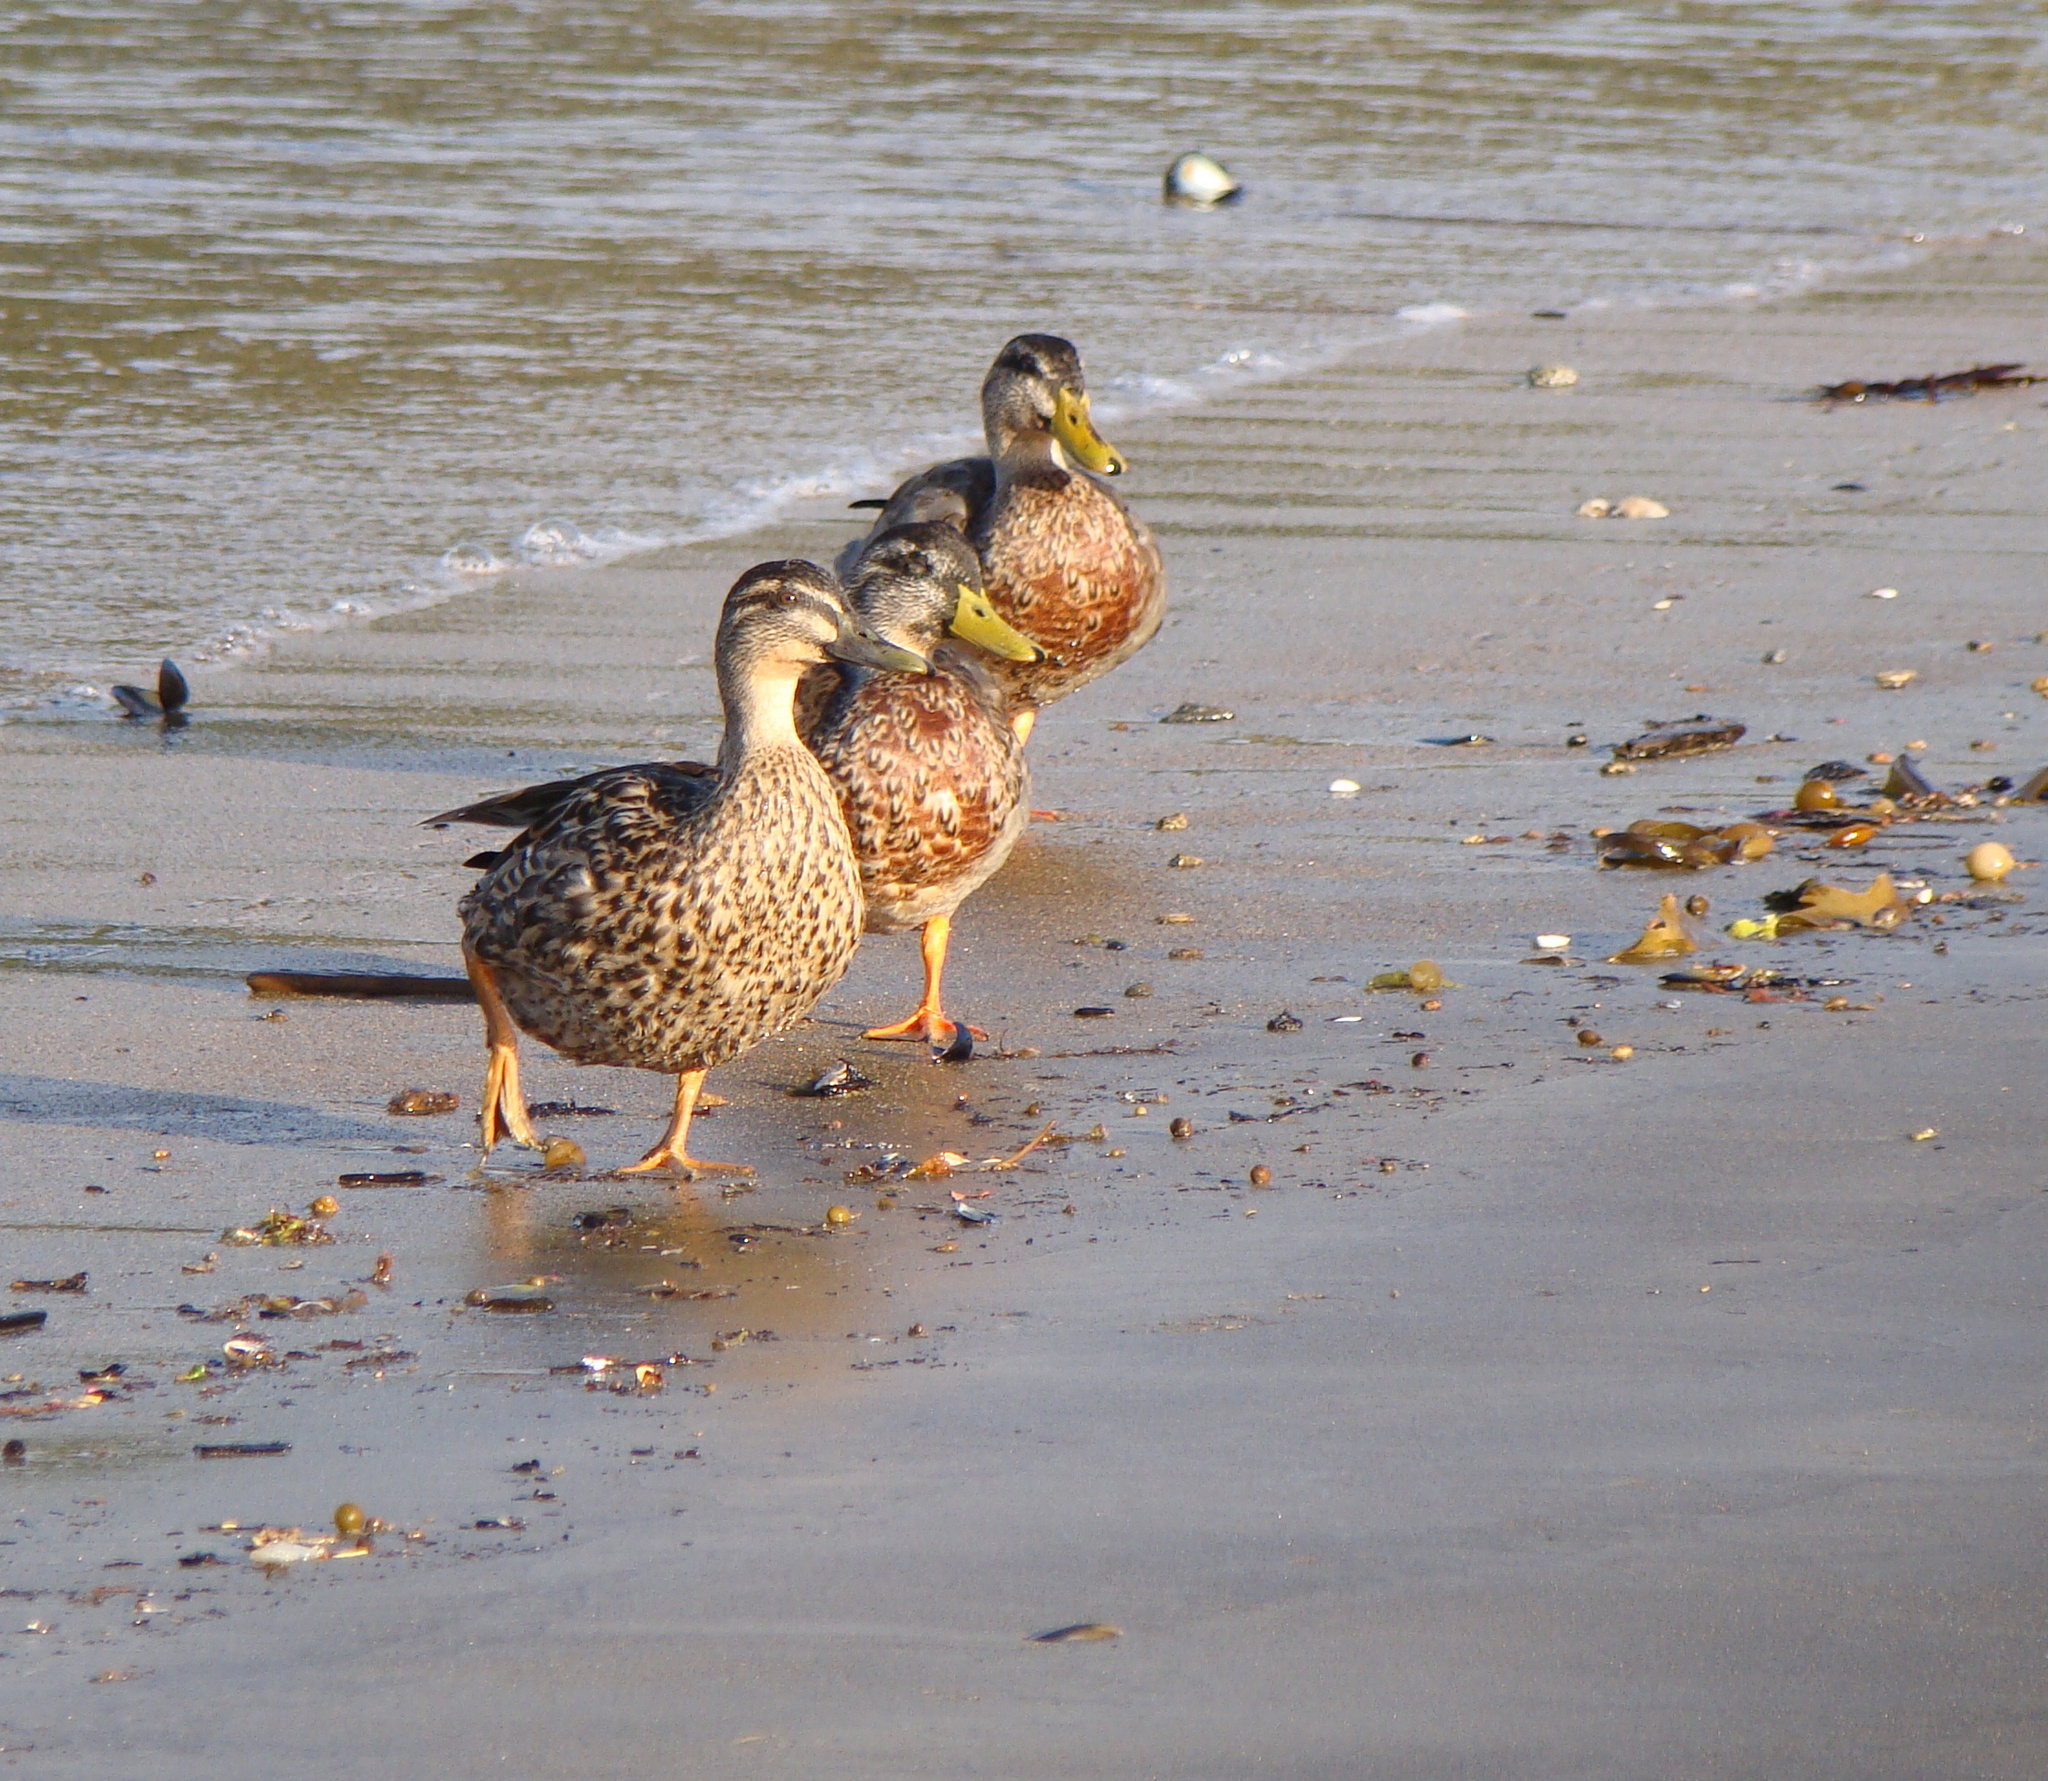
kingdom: Animalia
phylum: Chordata
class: Aves
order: Anseriformes
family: Anatidae
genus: Anas
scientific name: Anas
